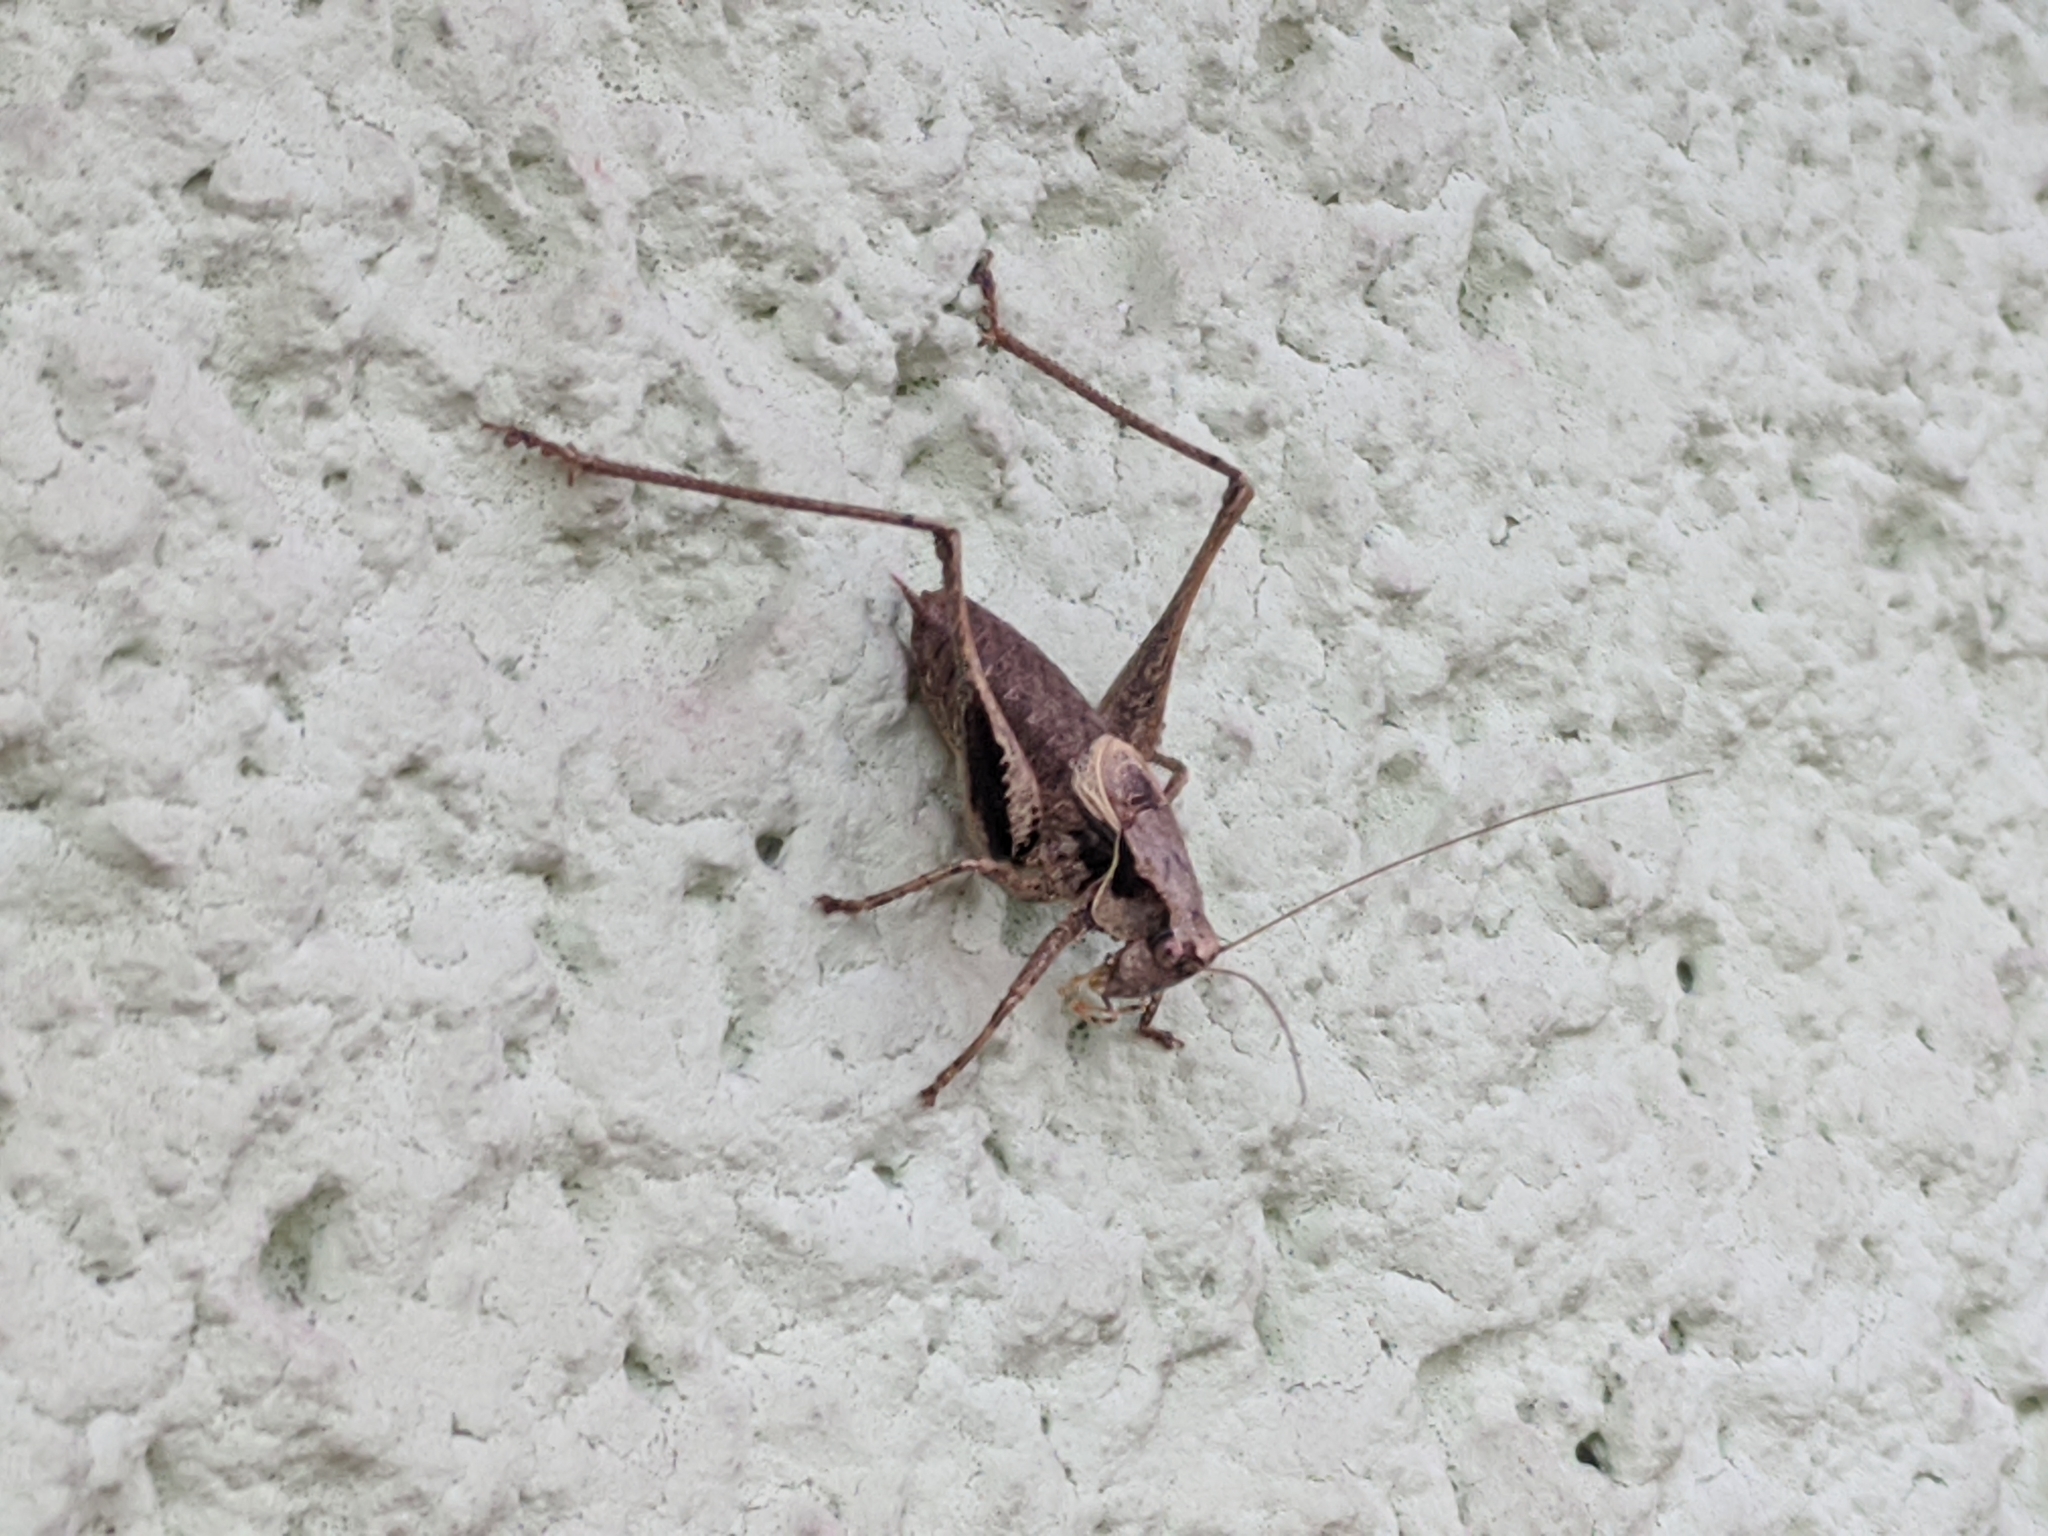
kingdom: Animalia
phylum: Arthropoda
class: Insecta
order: Orthoptera
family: Tettigoniidae
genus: Pholidoptera
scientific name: Pholidoptera griseoaptera
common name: Dark bush-cricket
